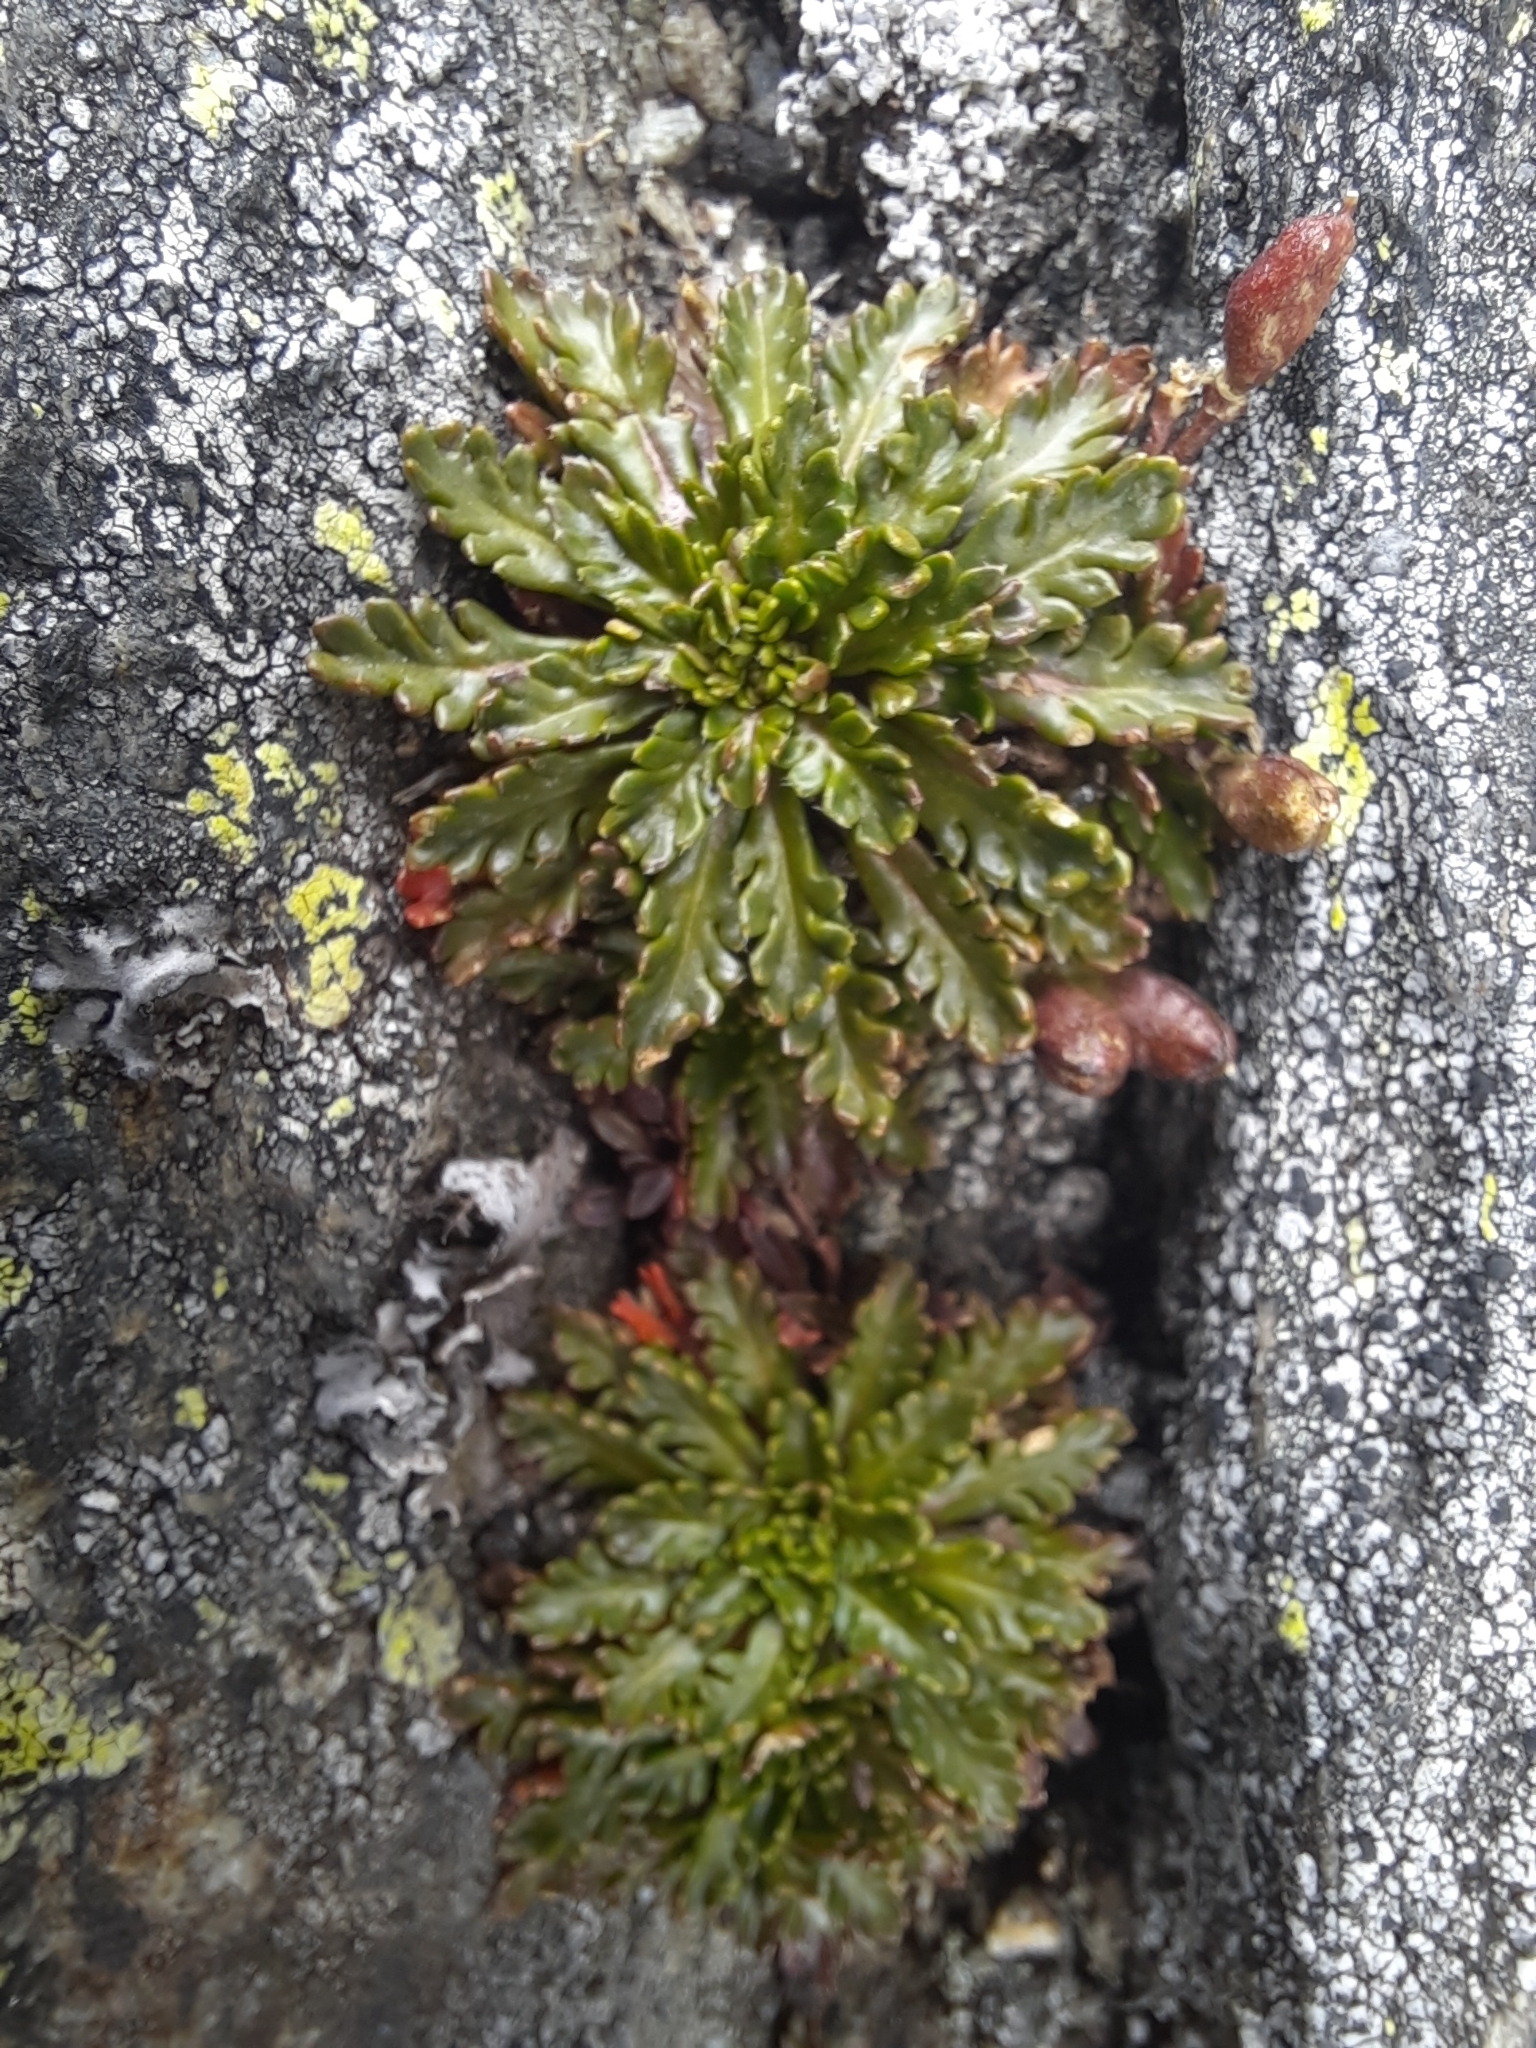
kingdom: Plantae
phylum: Tracheophyta
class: Magnoliopsida
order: Brassicales
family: Brassicaceae
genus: Pachycladon
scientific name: Pachycladon novae-zelandiae
